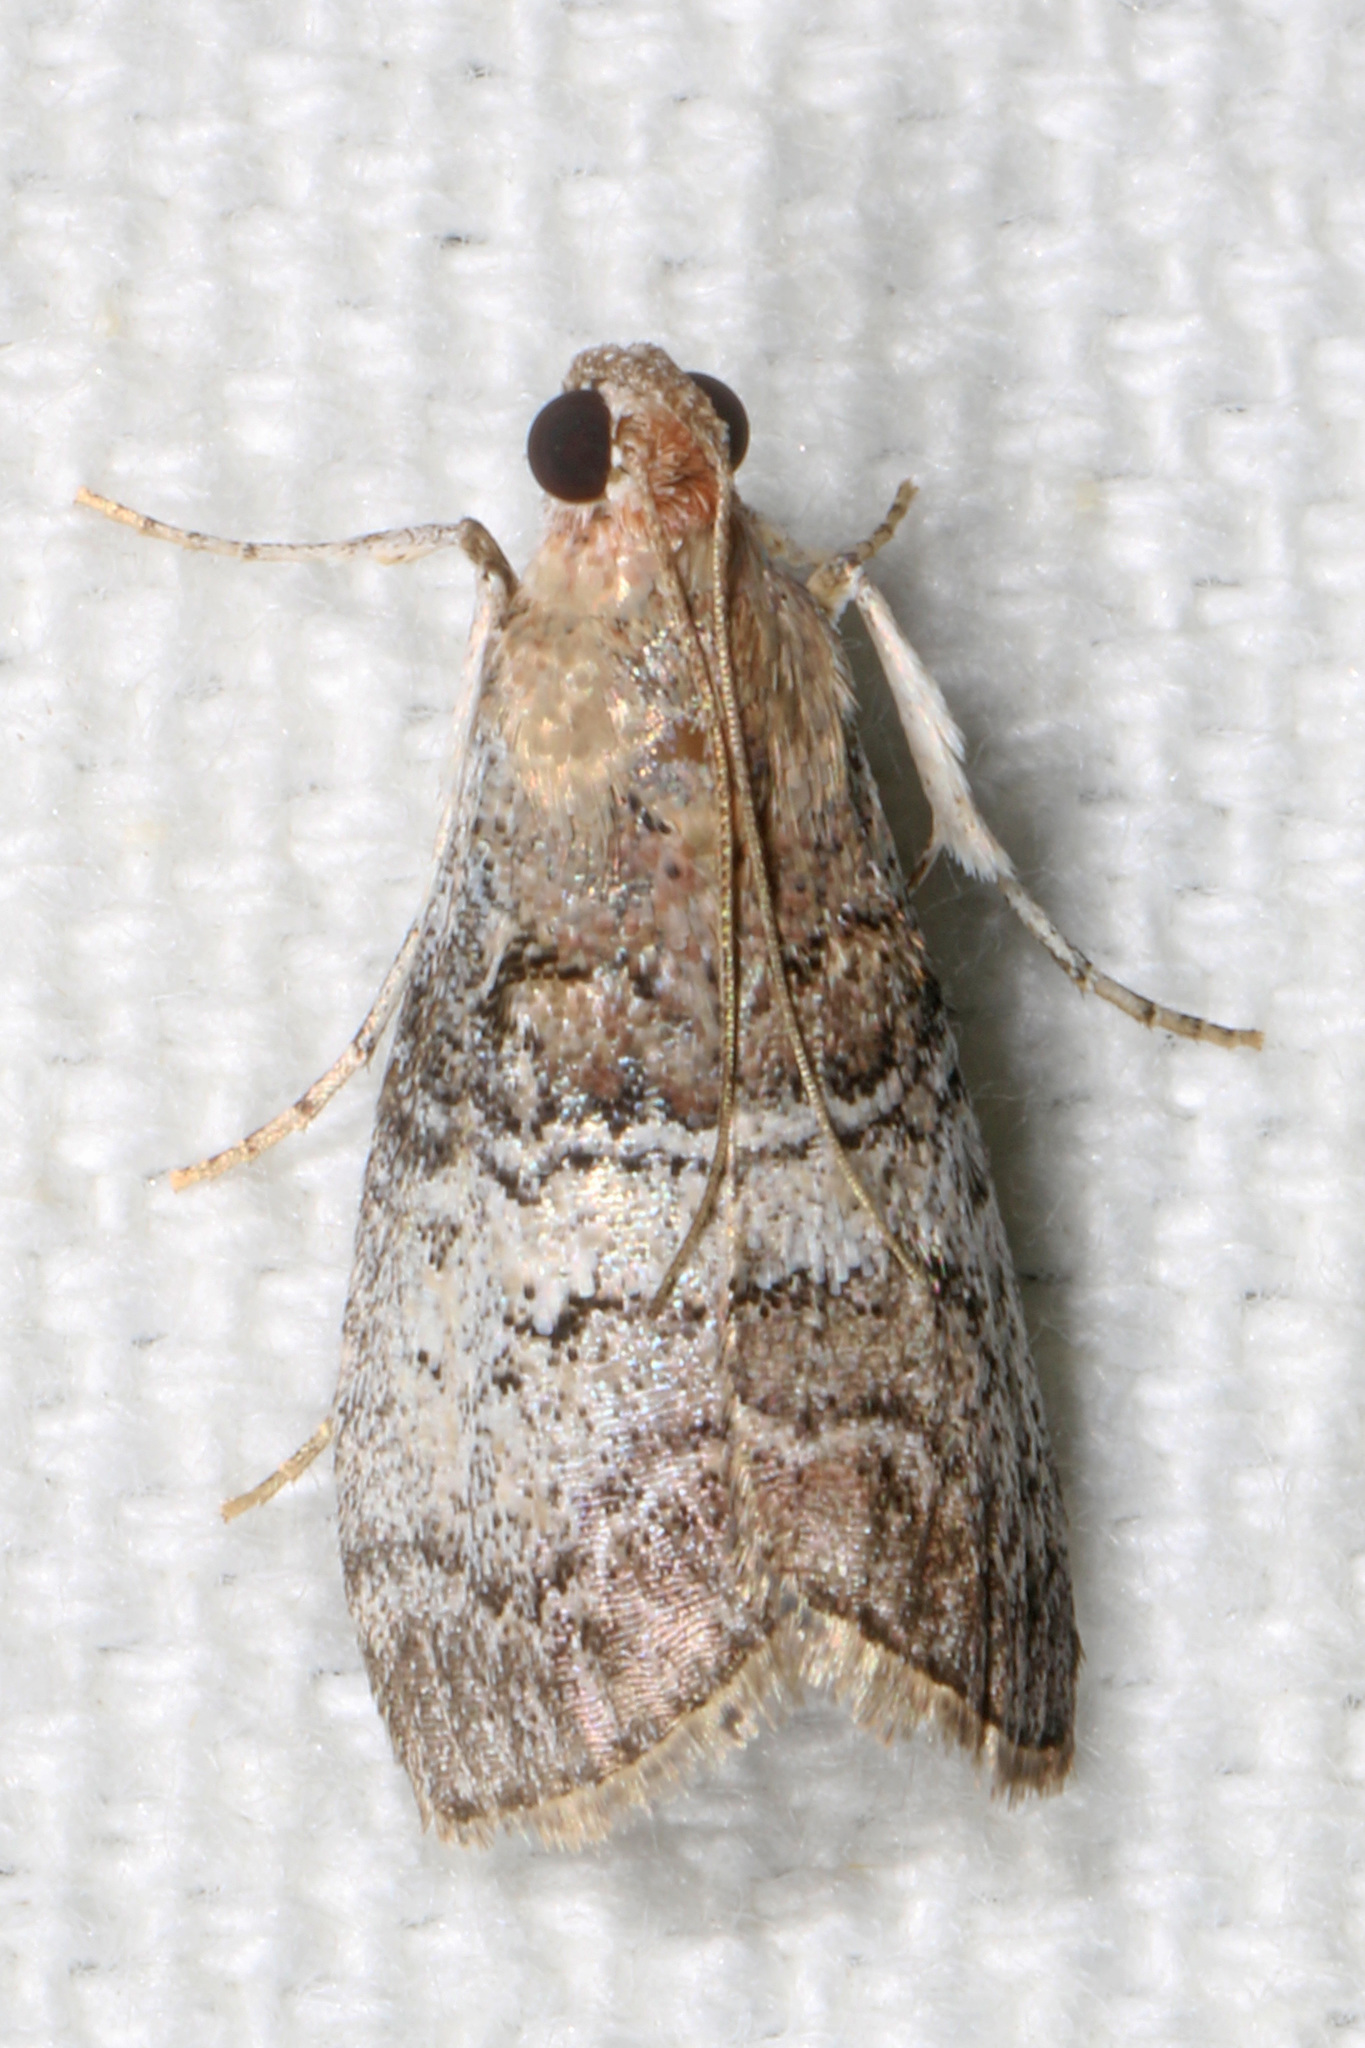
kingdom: Animalia
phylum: Arthropoda
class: Insecta
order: Lepidoptera
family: Pyralidae
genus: Pococera
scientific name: Pococera asperatella
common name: Maple webworm moth
